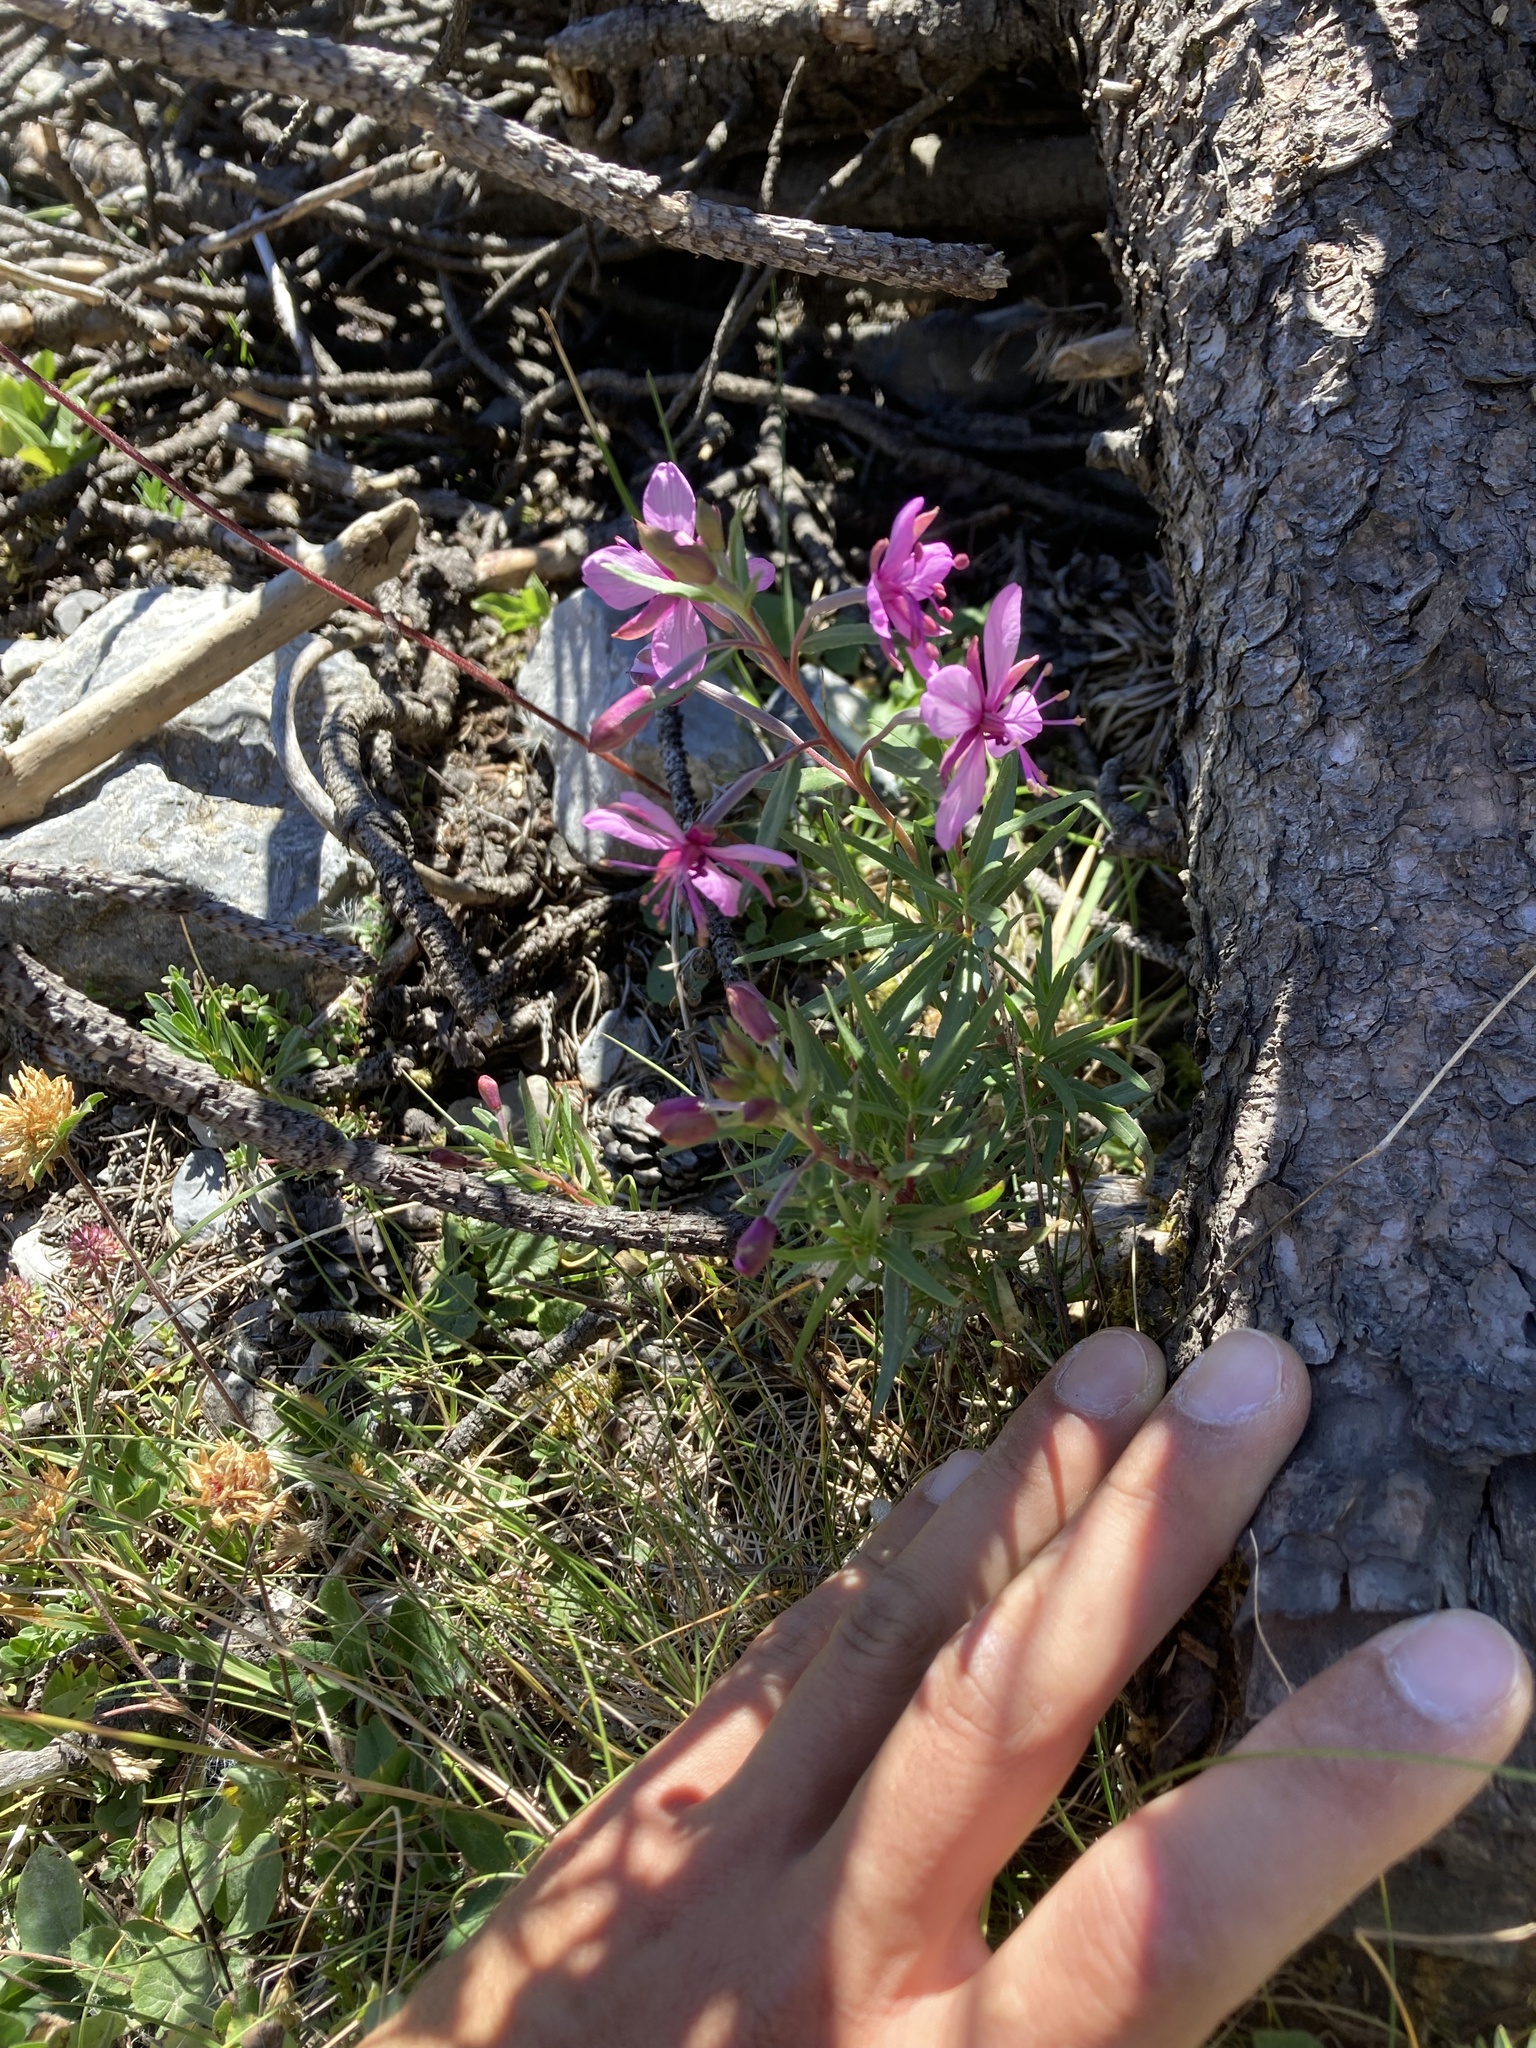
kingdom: Plantae
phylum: Tracheophyta
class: Magnoliopsida
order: Myrtales
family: Onagraceae
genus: Chamaenerion
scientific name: Chamaenerion fleischeri
